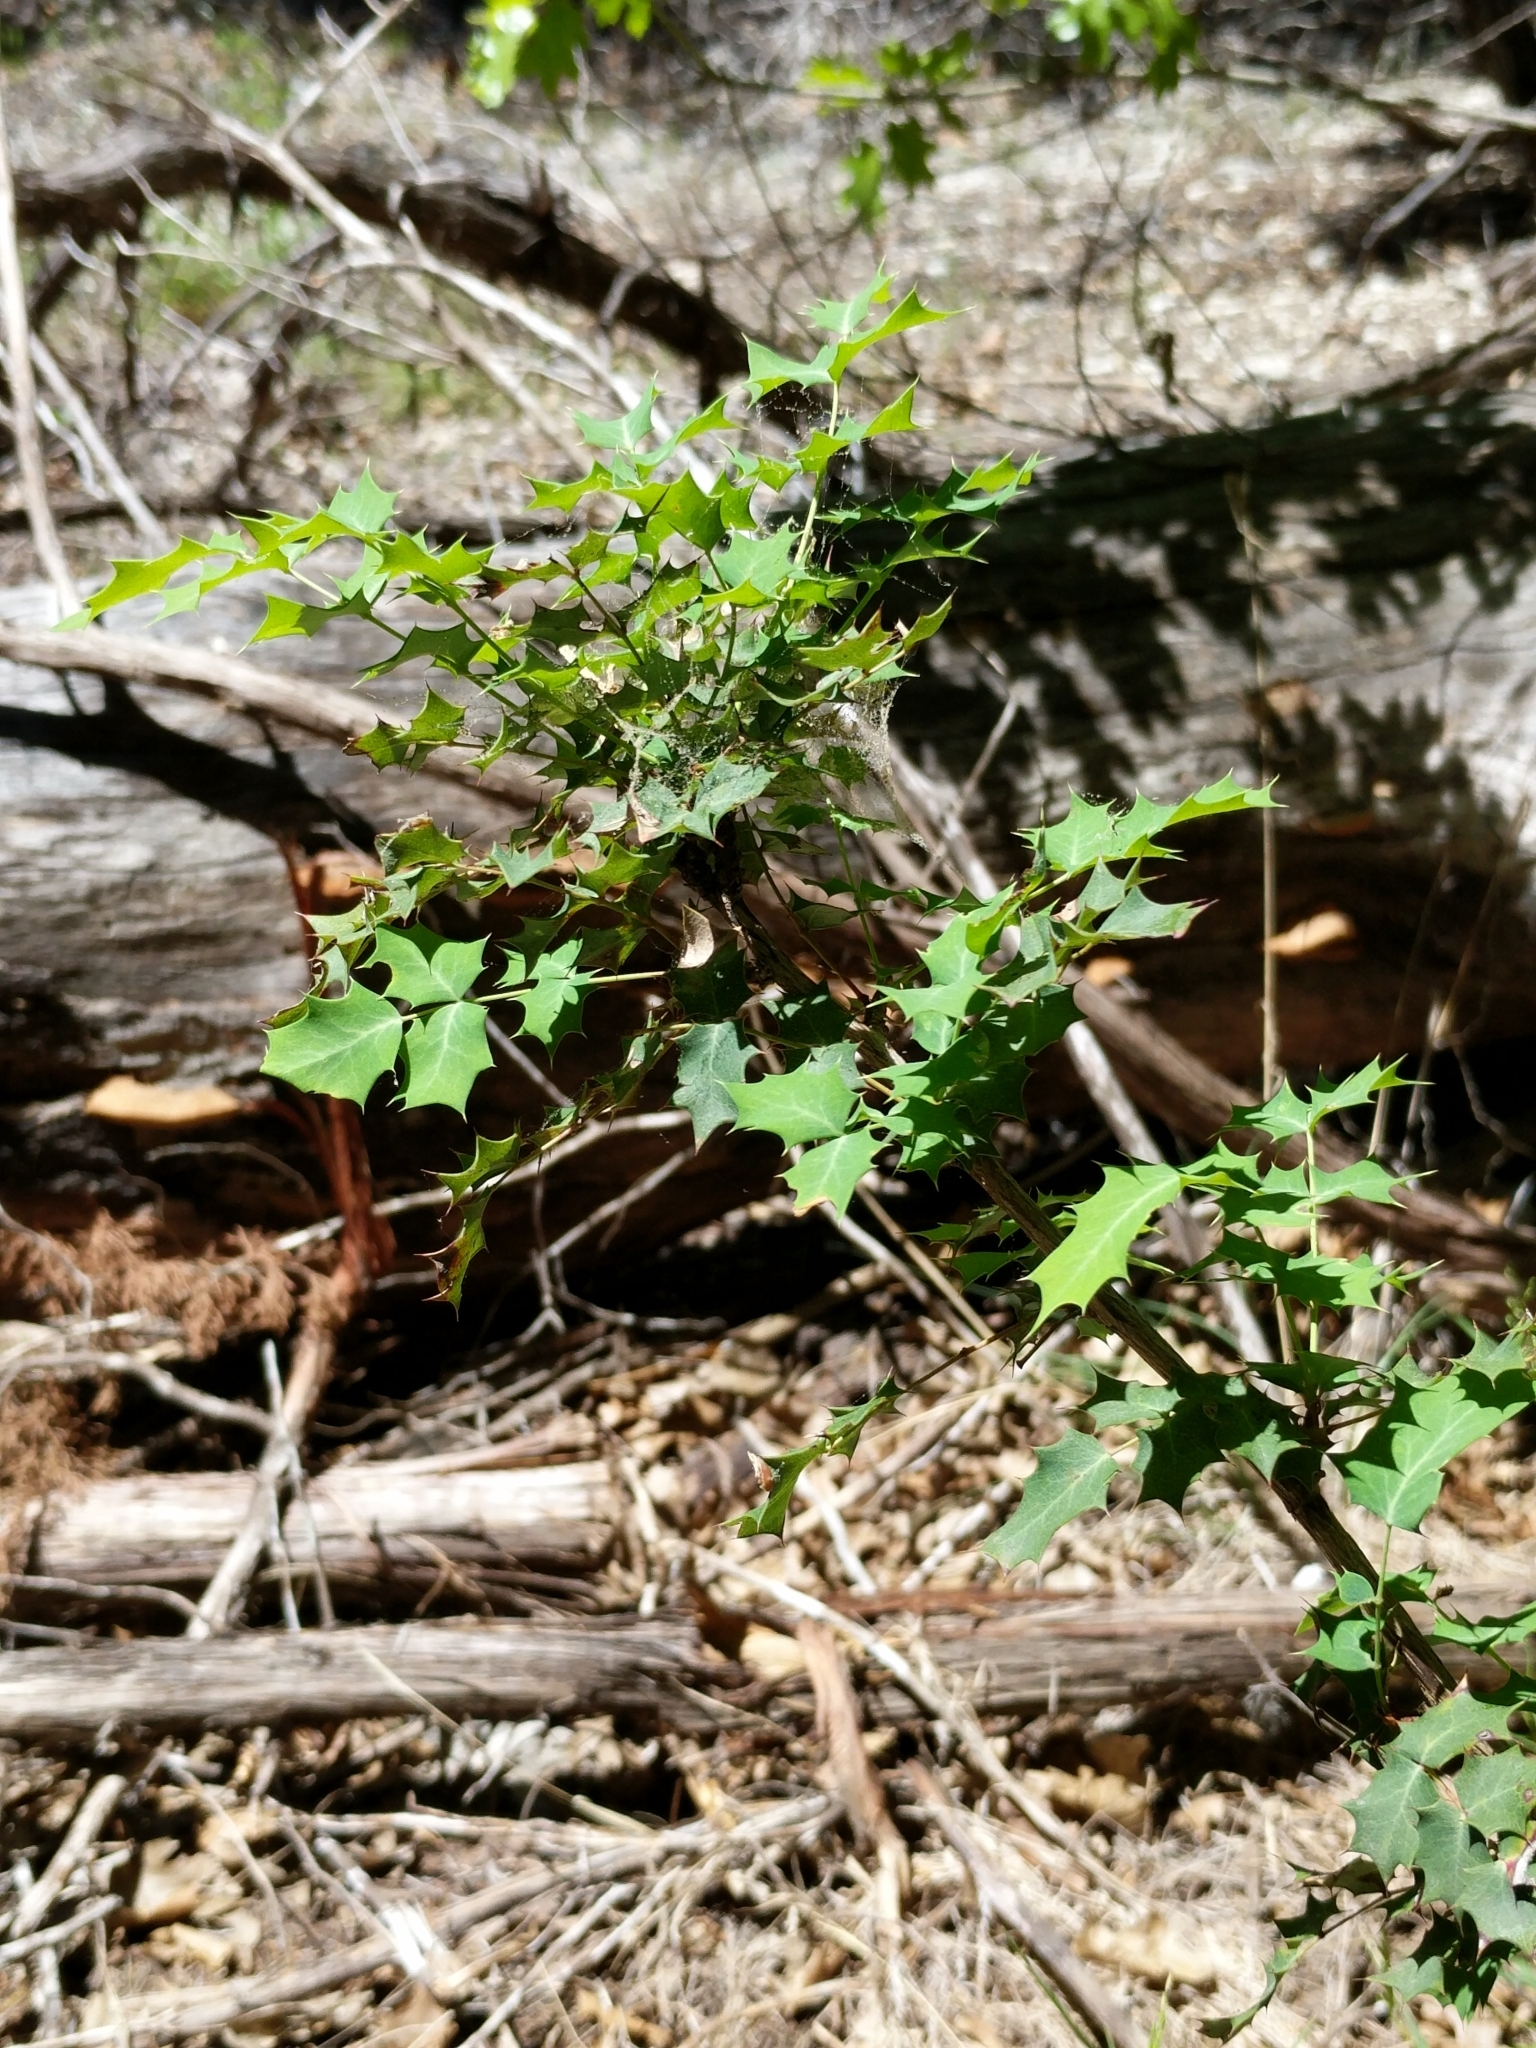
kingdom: Plantae
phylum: Tracheophyta
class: Magnoliopsida
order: Ranunculales
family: Berberidaceae
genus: Berberis
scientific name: Berberis swaseyi
